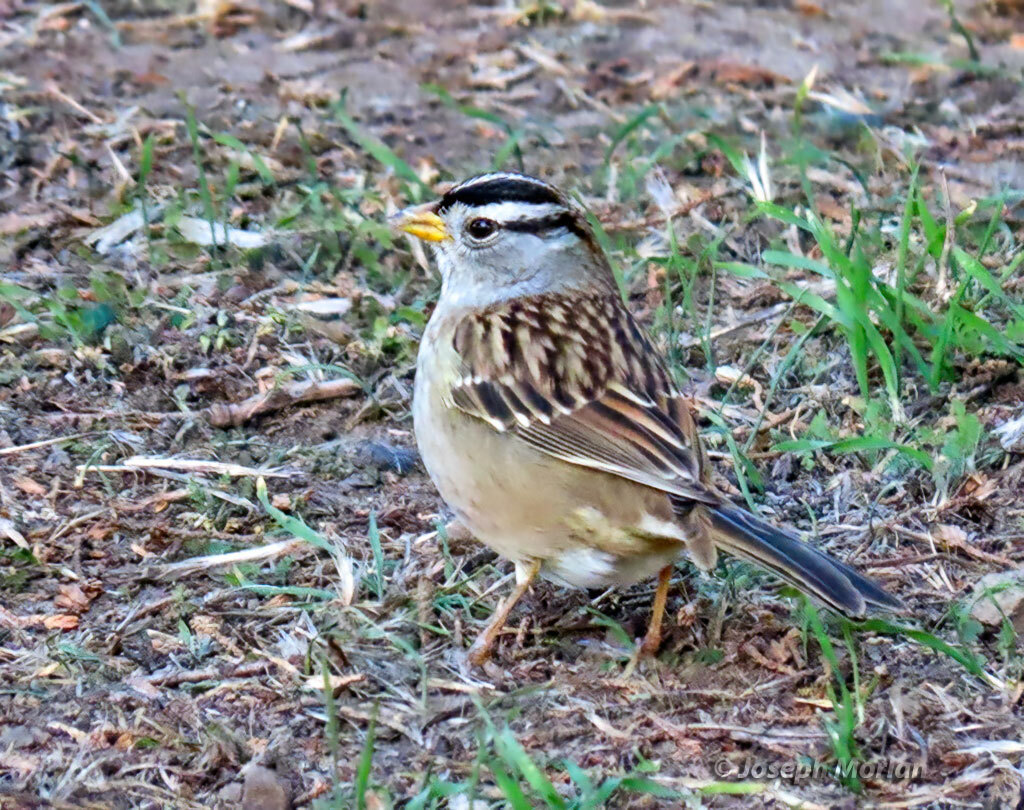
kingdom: Animalia
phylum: Chordata
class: Aves
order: Passeriformes
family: Passerellidae
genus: Zonotrichia
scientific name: Zonotrichia leucophrys
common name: White-crowned sparrow
